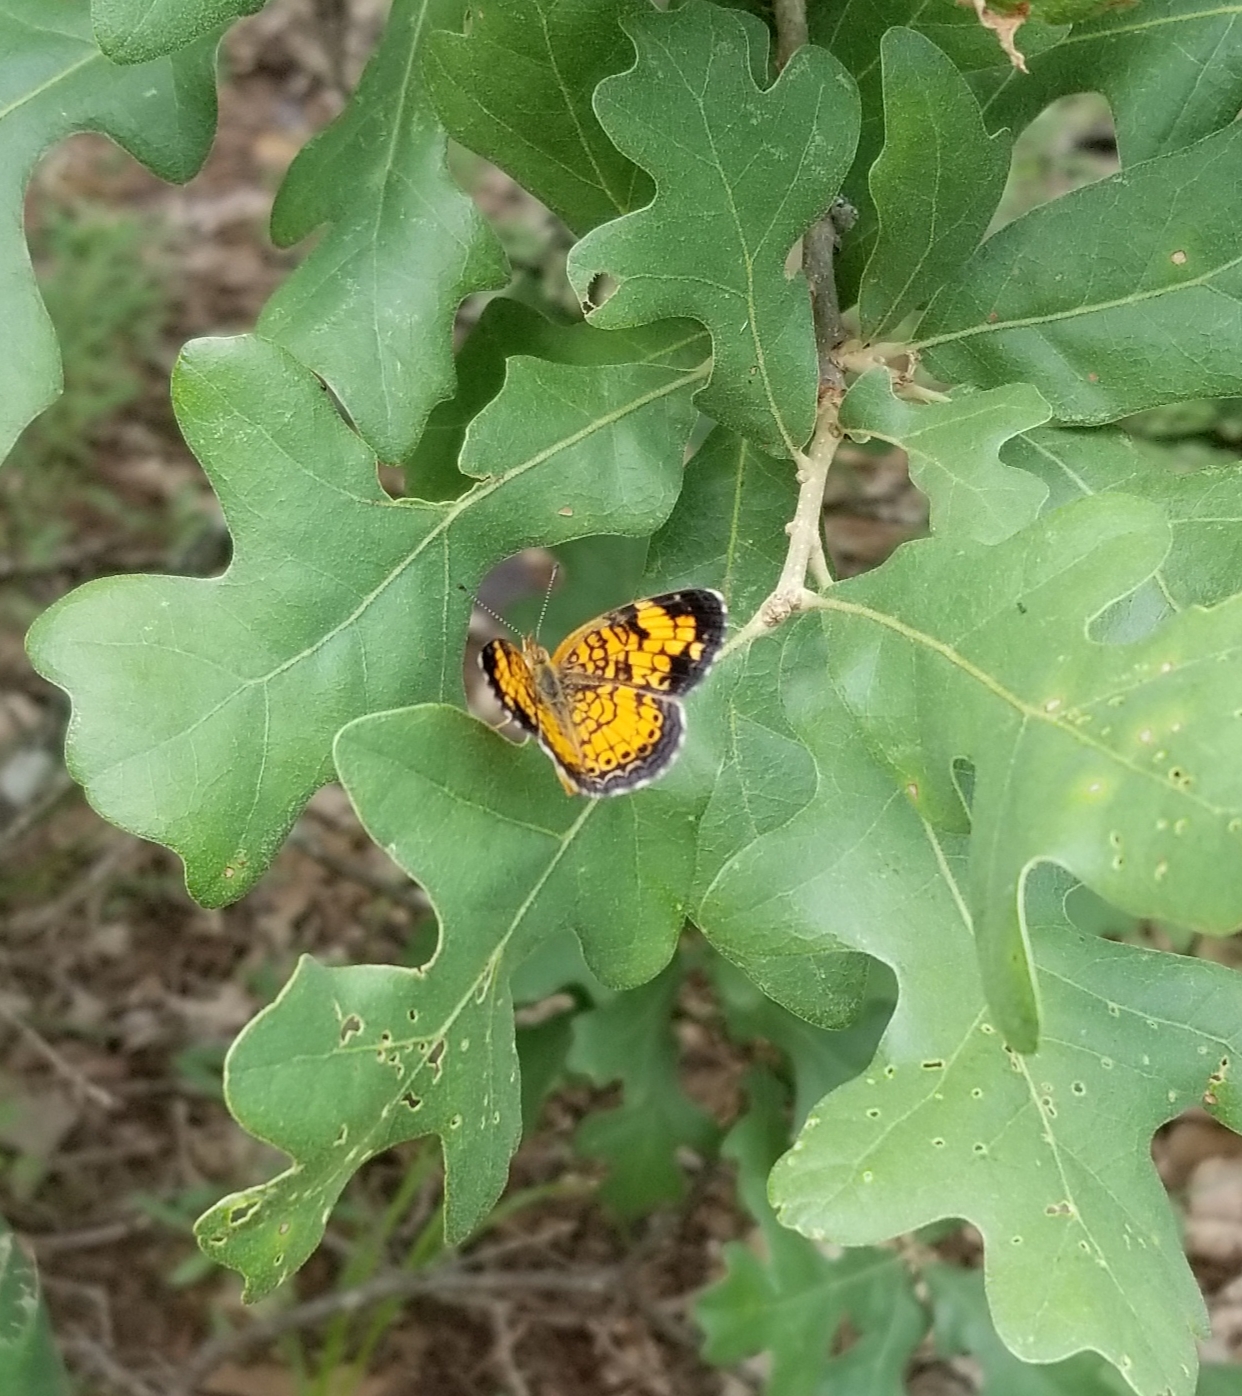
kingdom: Animalia
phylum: Arthropoda
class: Insecta
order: Lepidoptera
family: Nymphalidae
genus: Phyciodes
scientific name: Phyciodes tharos
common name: Pearl crescent
